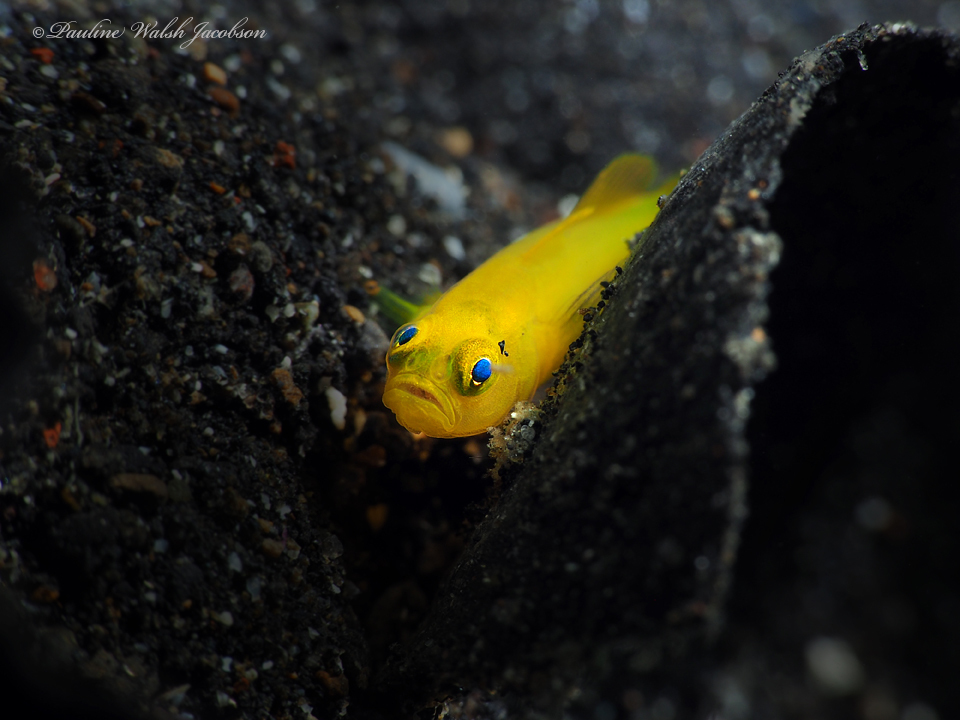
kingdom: Animalia
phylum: Chordata
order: Perciformes
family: Gobiidae
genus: Lubricogobius
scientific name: Lubricogobius exiguus
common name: Yellow pygmy-goby
